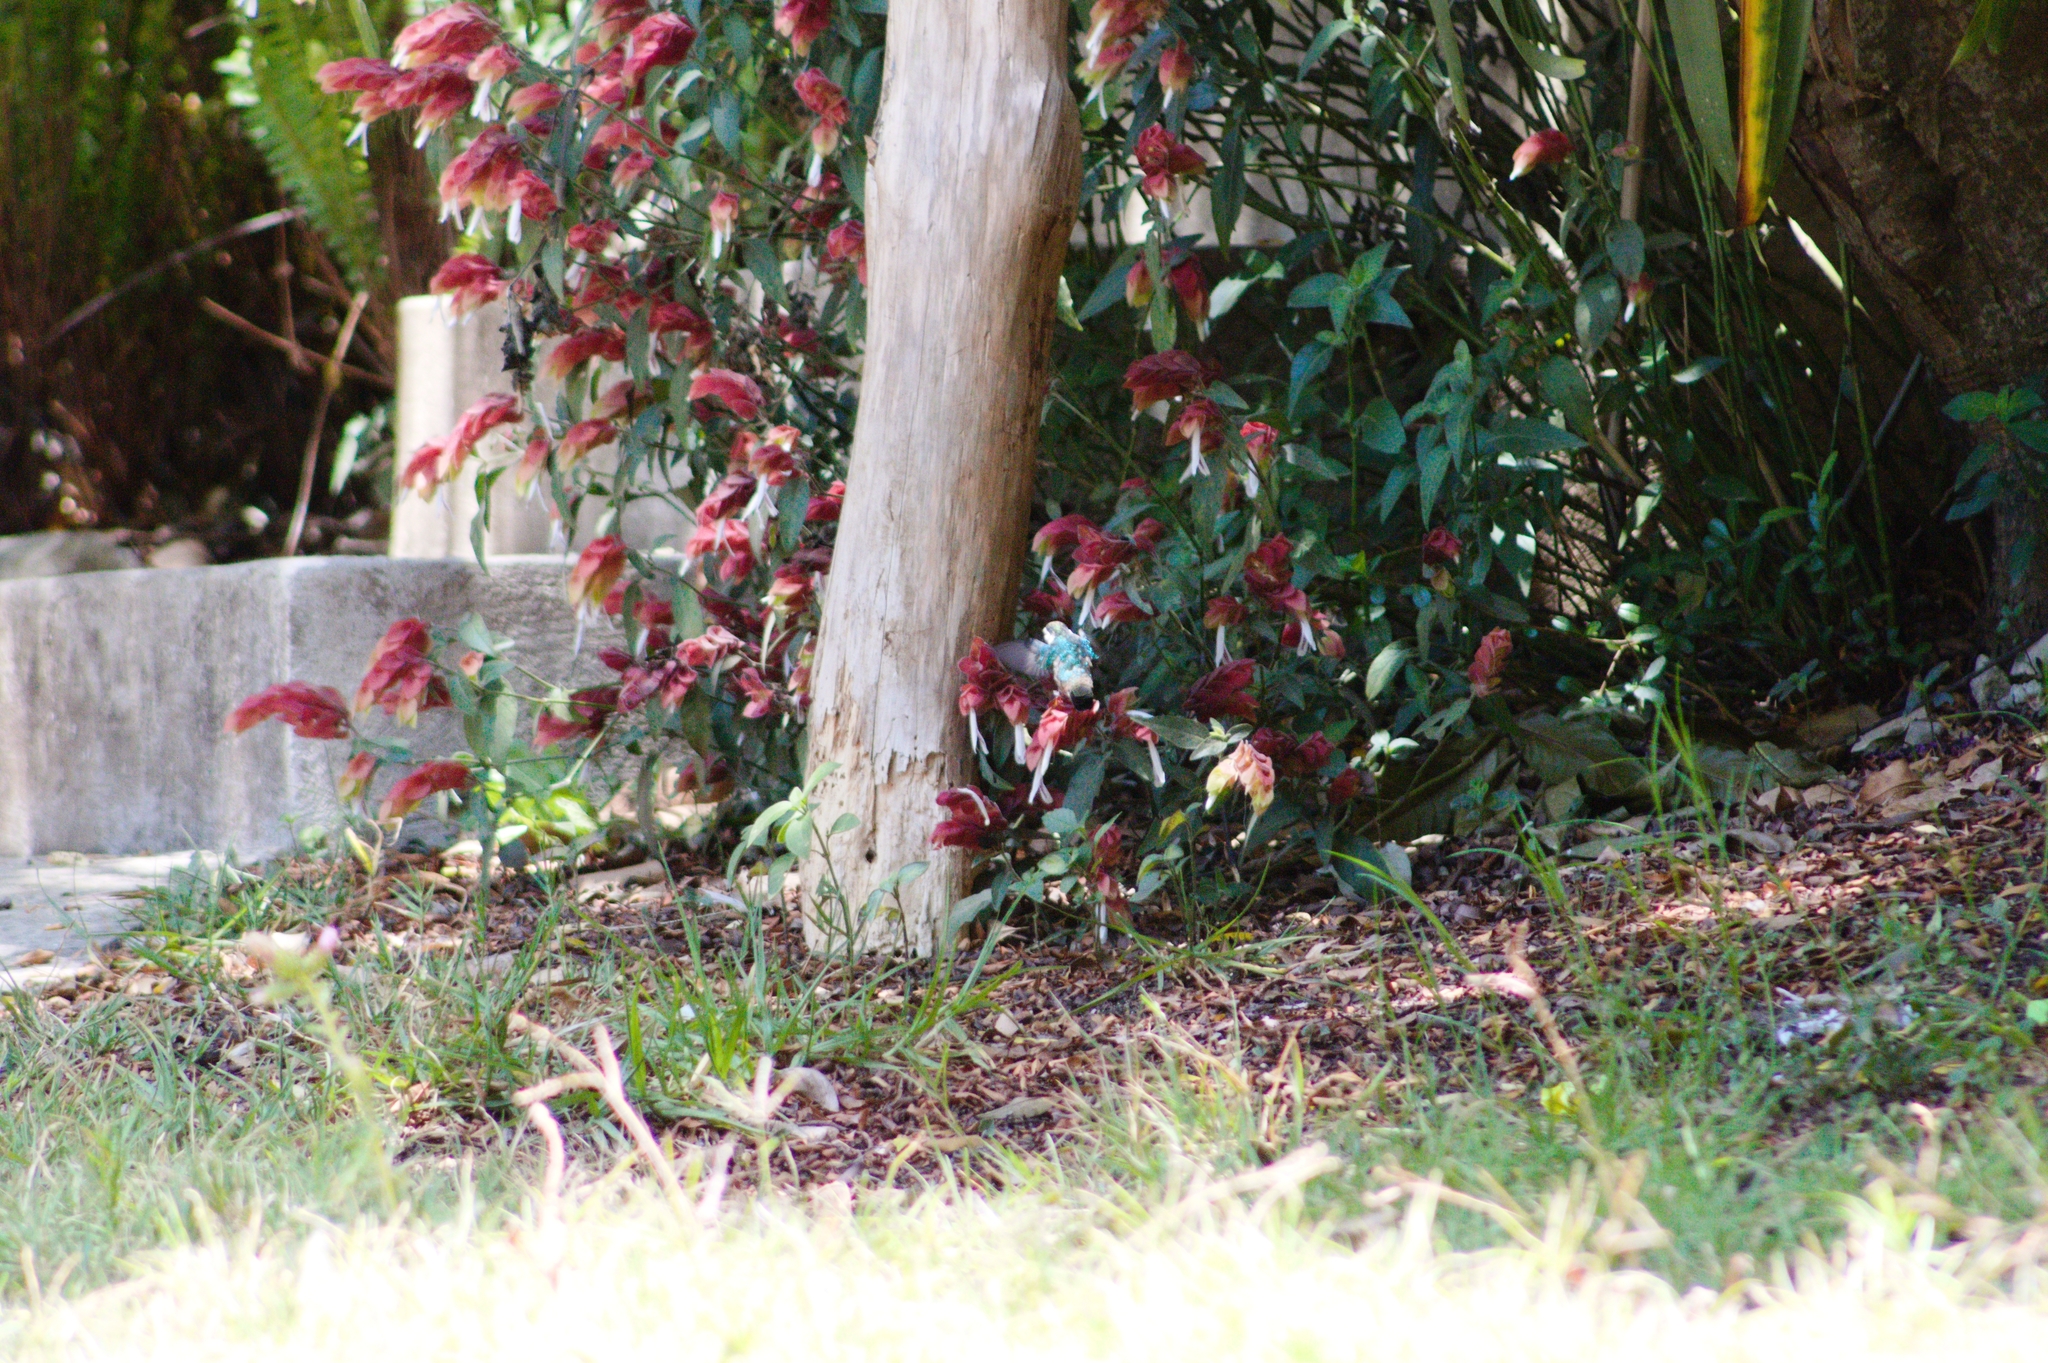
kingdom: Plantae
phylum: Tracheophyta
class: Magnoliopsida
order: Lamiales
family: Acanthaceae
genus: Justicia
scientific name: Justicia brandegeeana
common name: Shrimpplant
